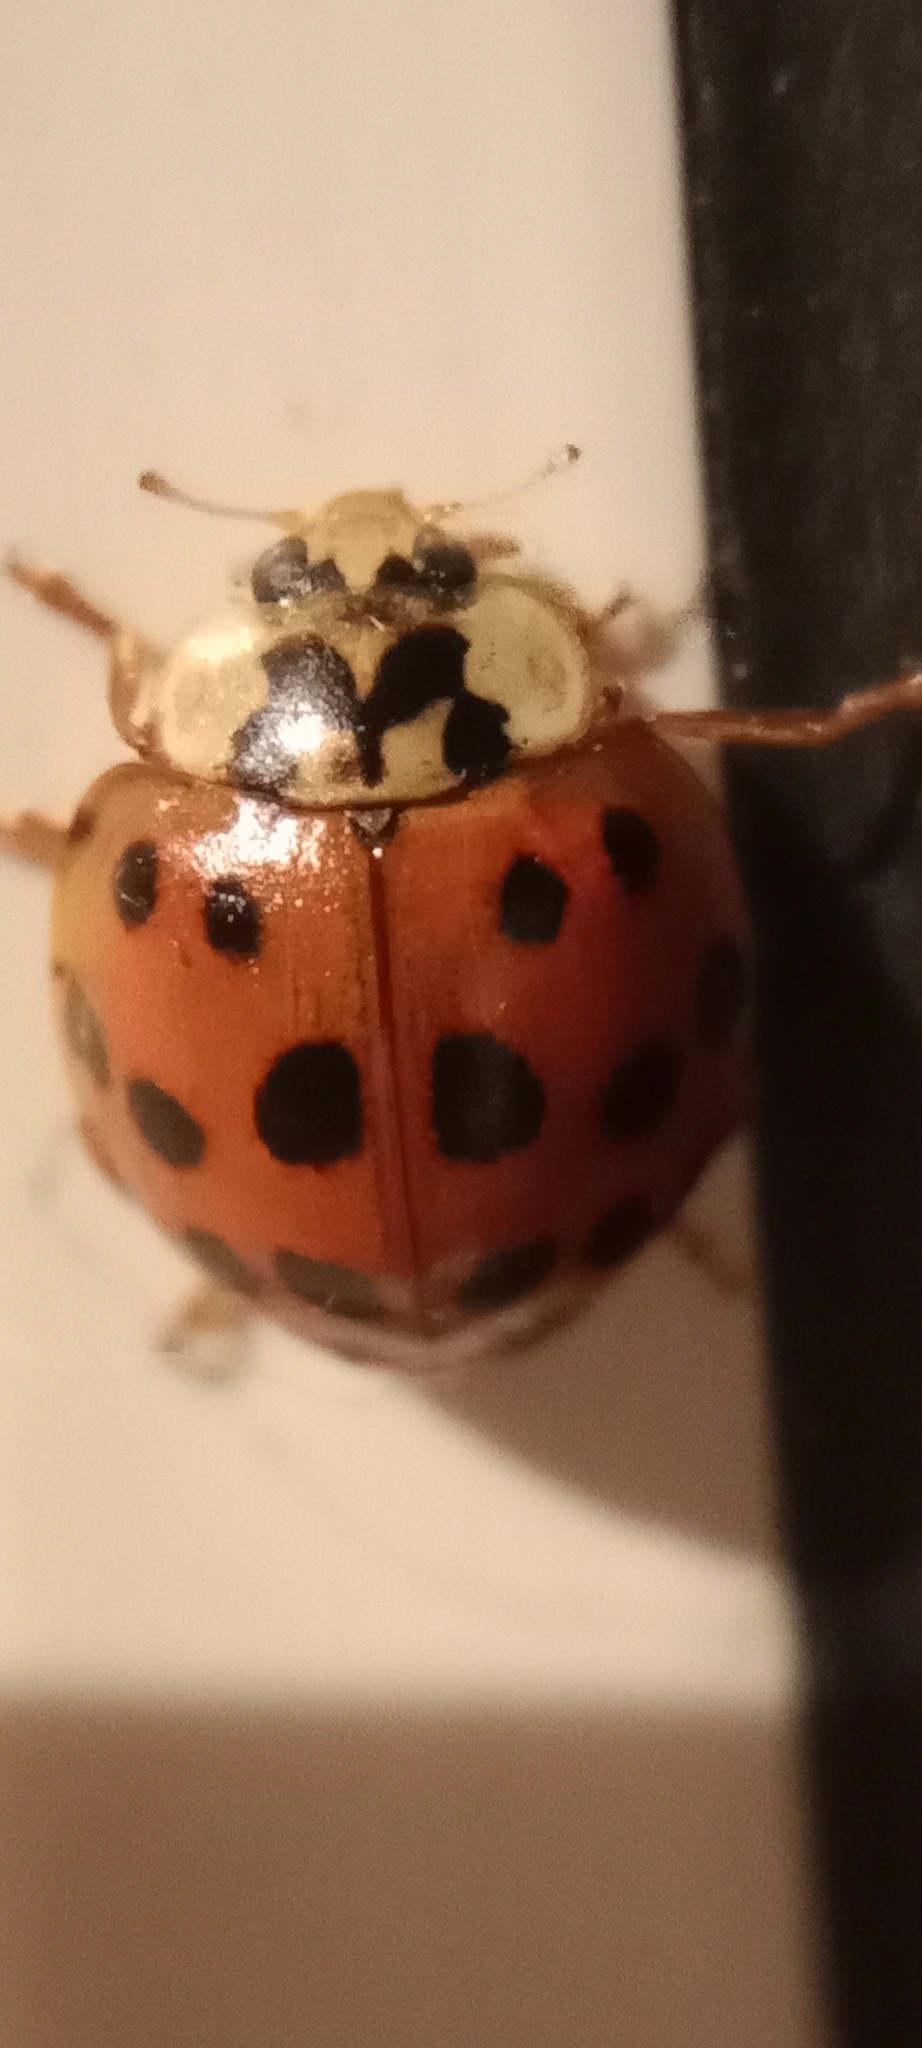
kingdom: Animalia
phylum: Arthropoda
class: Insecta
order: Coleoptera
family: Coccinellidae
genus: Harmonia
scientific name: Harmonia axyridis
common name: Harlequin ladybird
